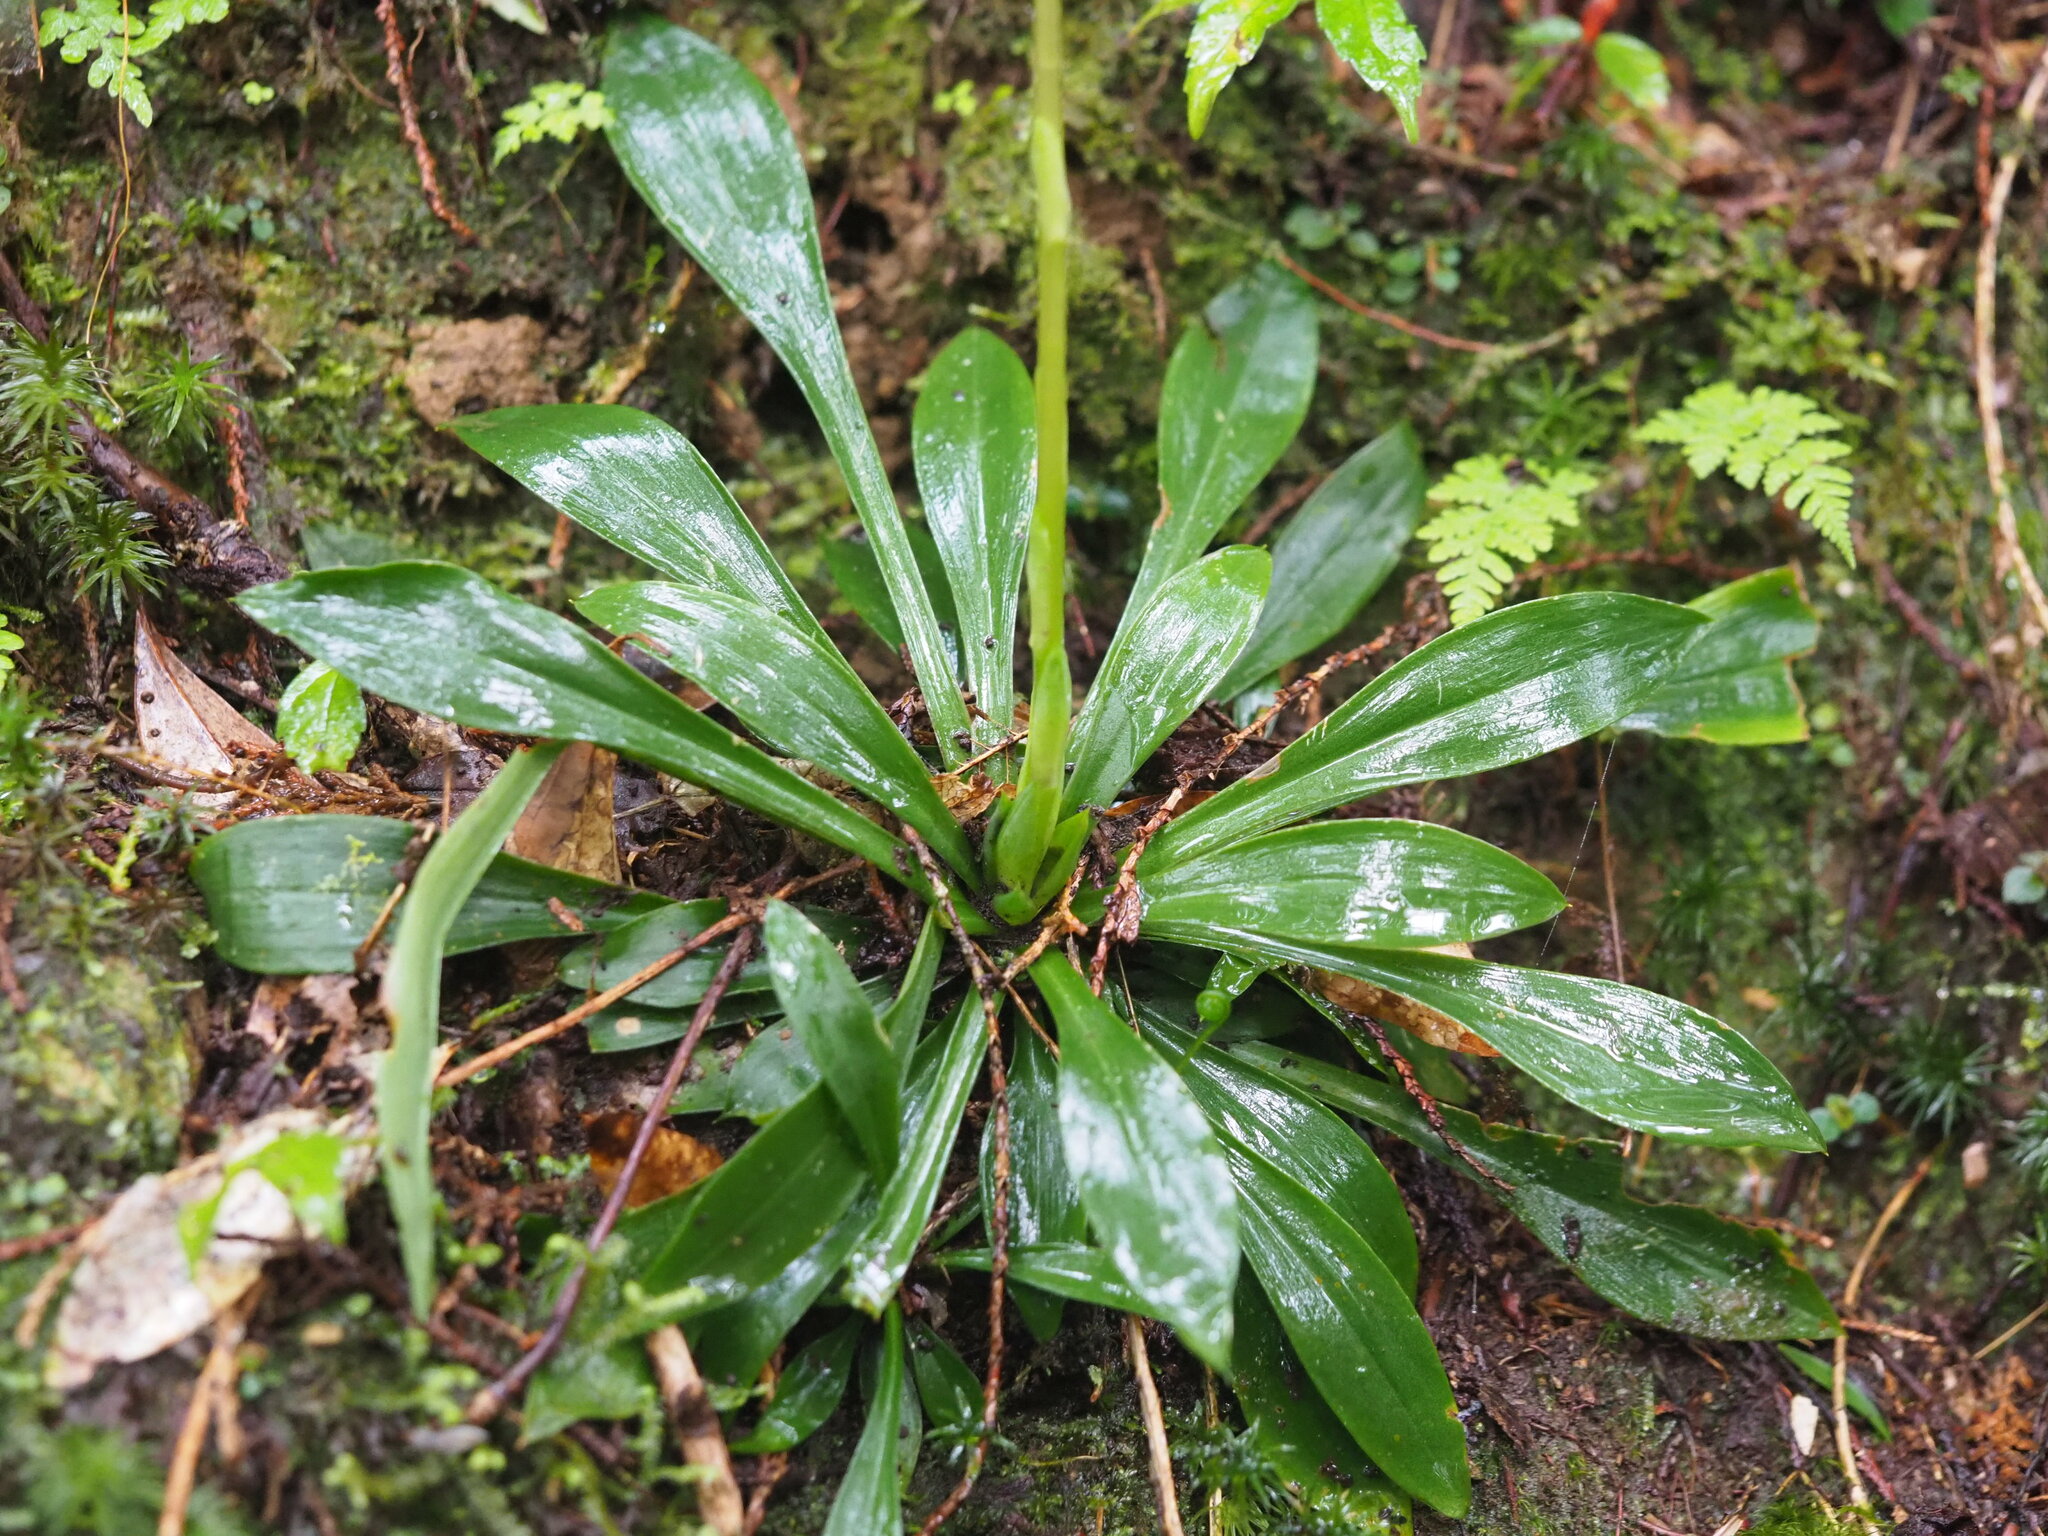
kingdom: Plantae
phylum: Tracheophyta
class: Liliopsida
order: Liliales
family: Melanthiaceae
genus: Helonias
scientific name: Helonias umbellata
